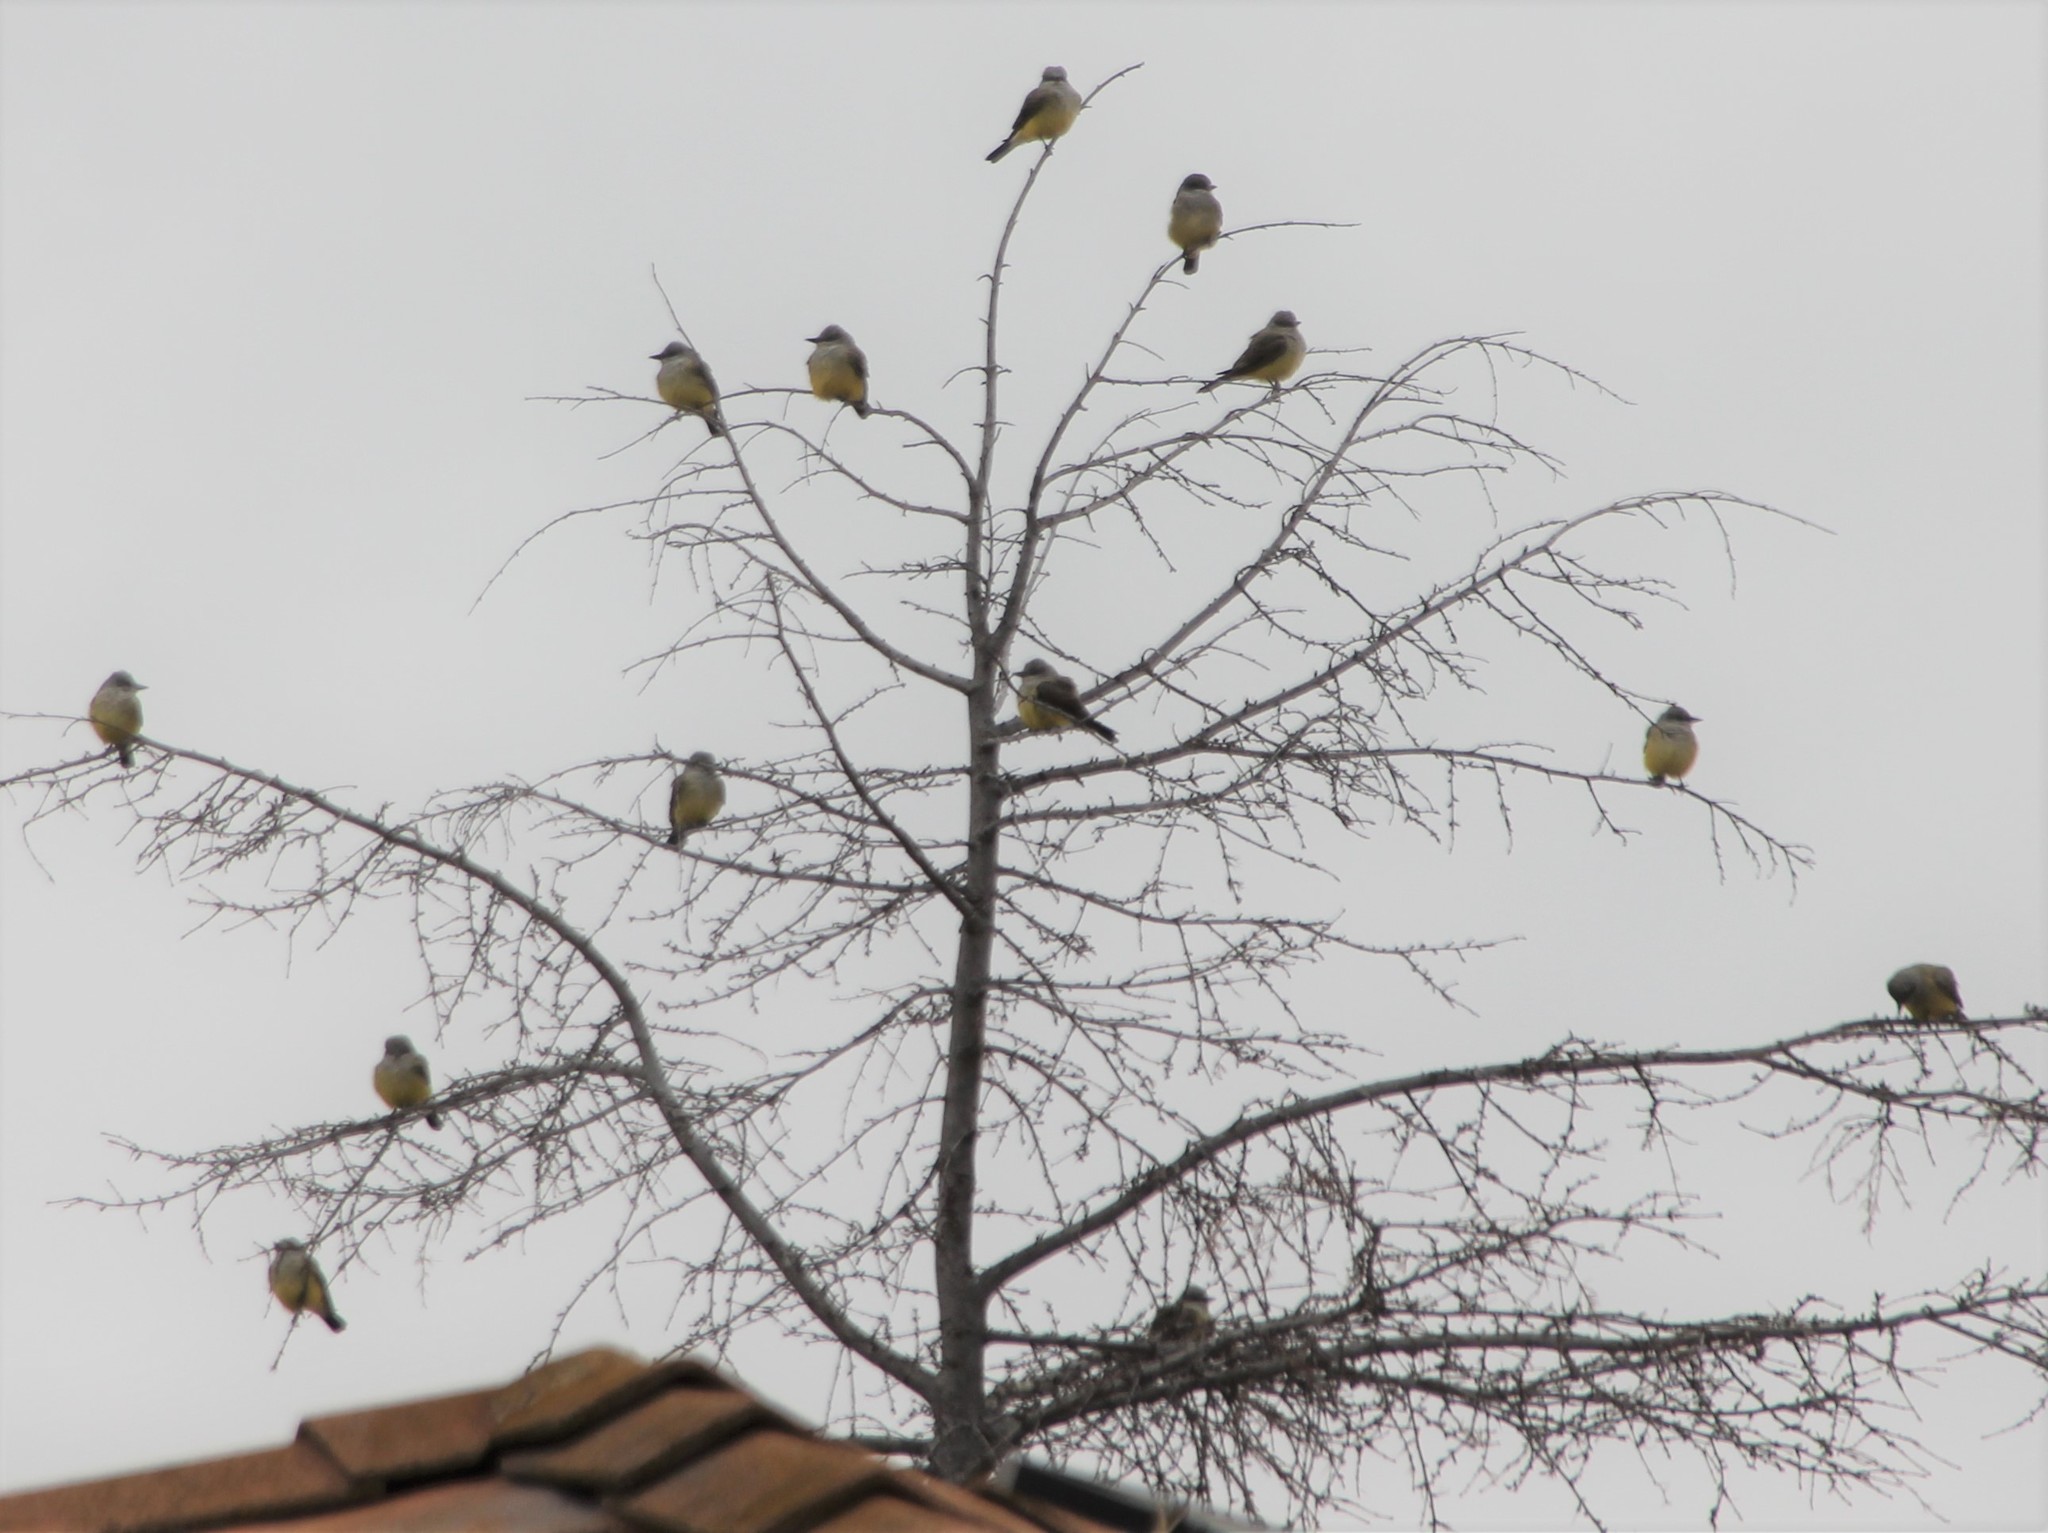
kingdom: Animalia
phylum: Chordata
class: Aves
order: Passeriformes
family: Tyrannidae
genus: Tyrannus
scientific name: Tyrannus verticalis
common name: Western kingbird
